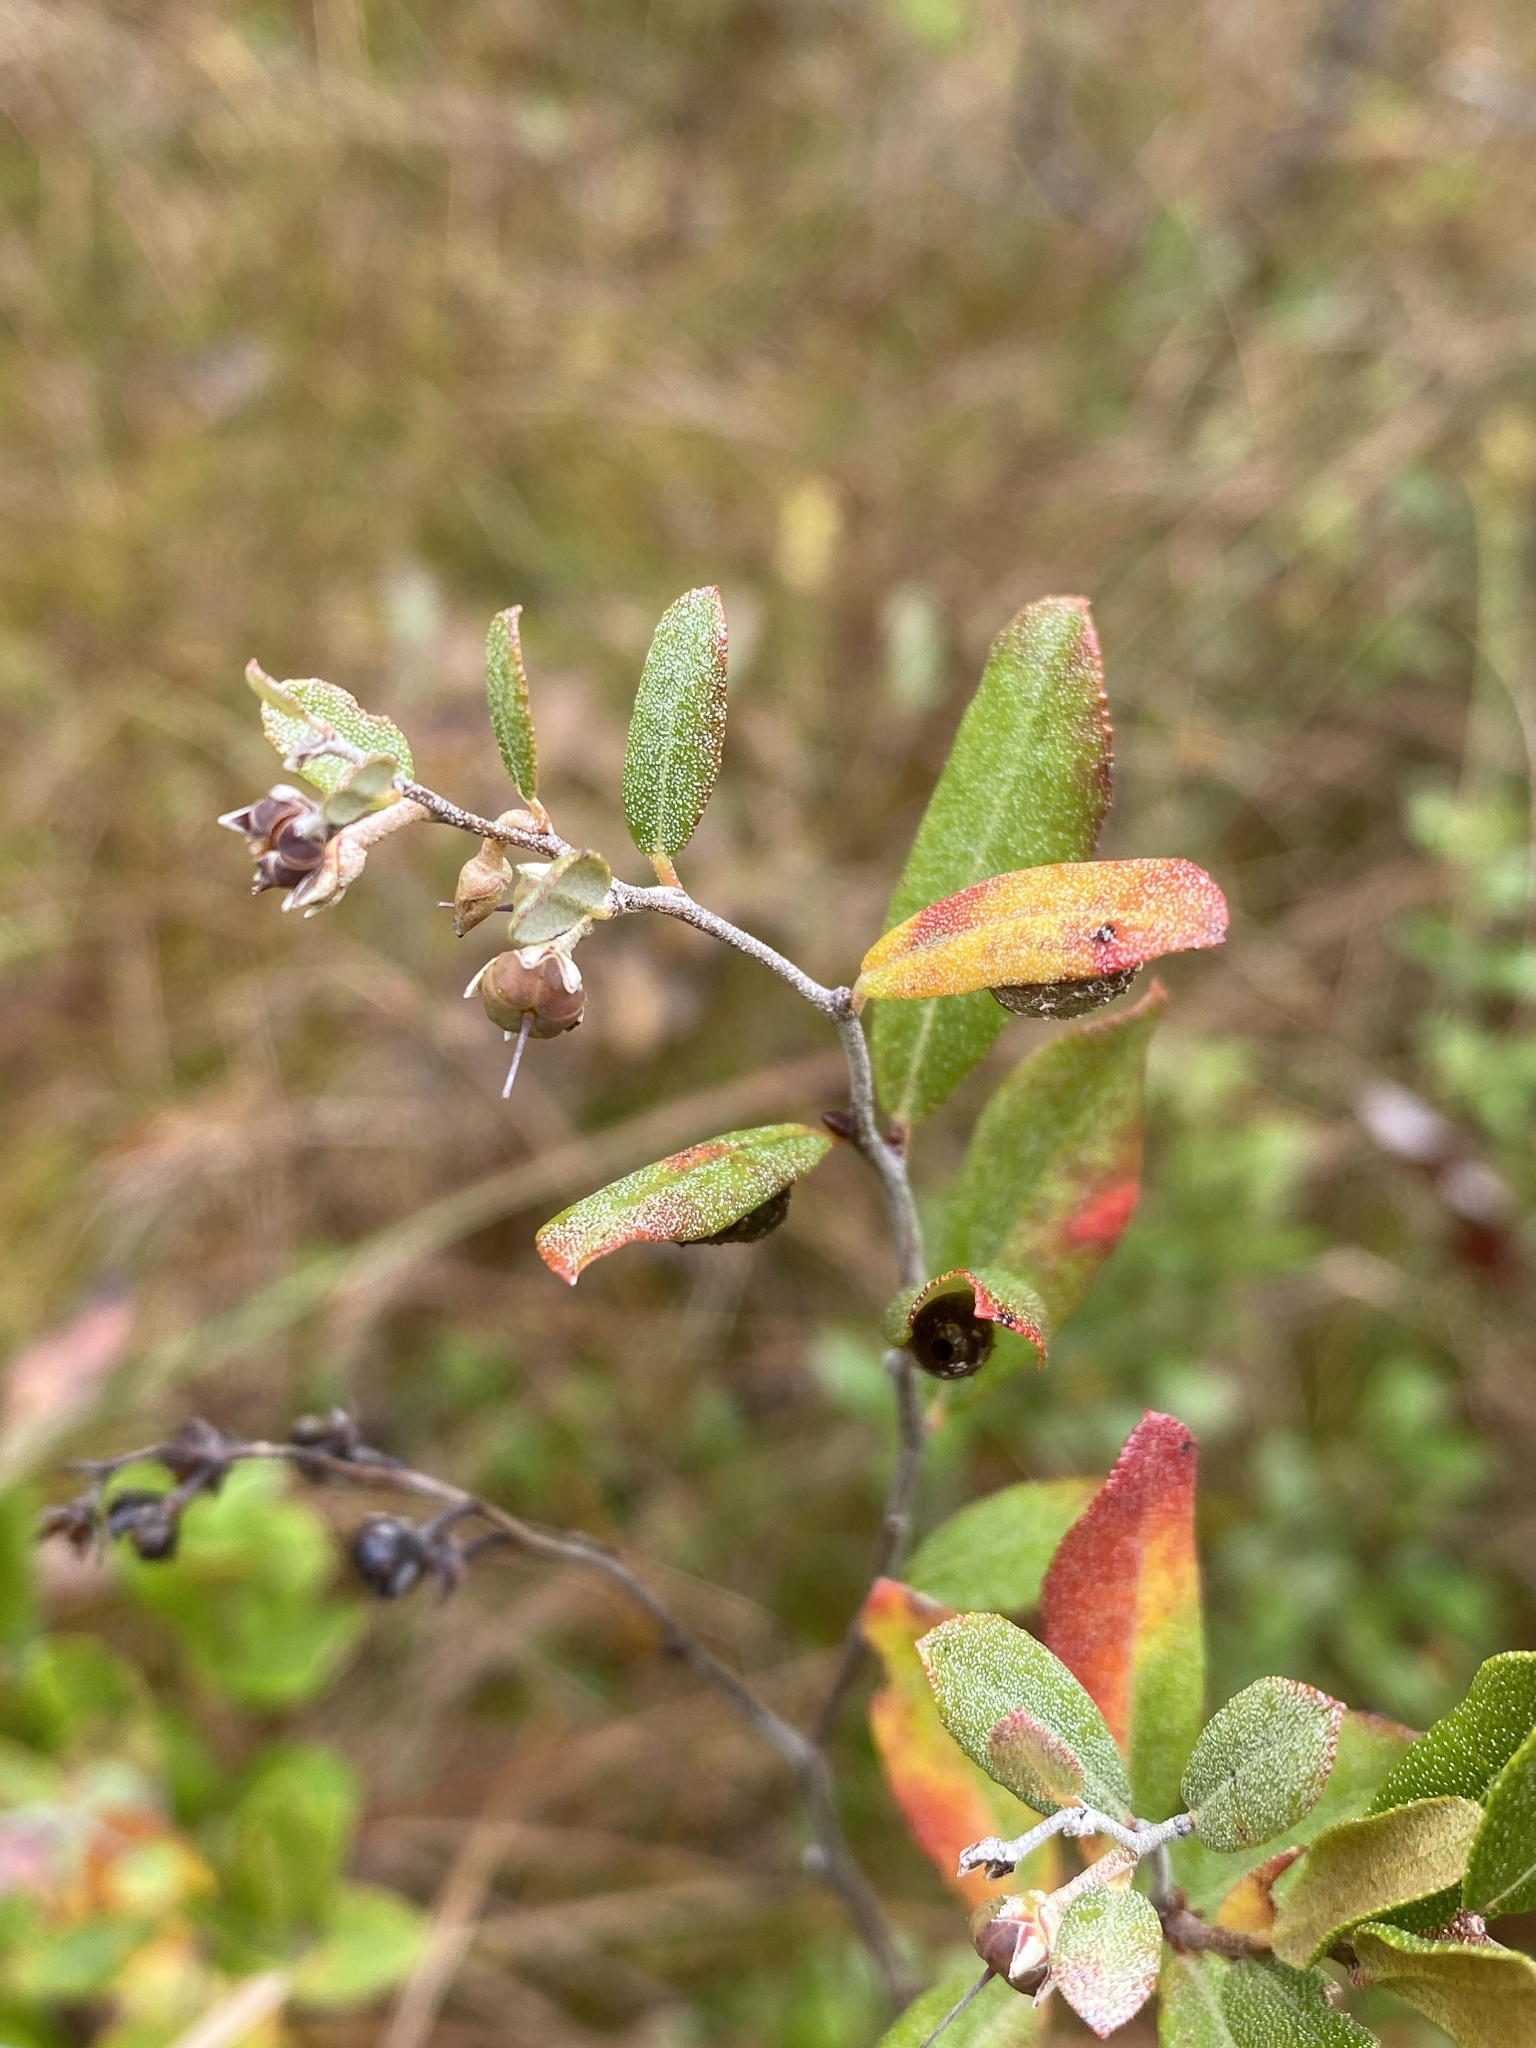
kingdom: Plantae
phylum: Tracheophyta
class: Magnoliopsida
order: Ericales
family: Ericaceae
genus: Chamaedaphne
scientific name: Chamaedaphne calyculata
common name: Leatherleaf
